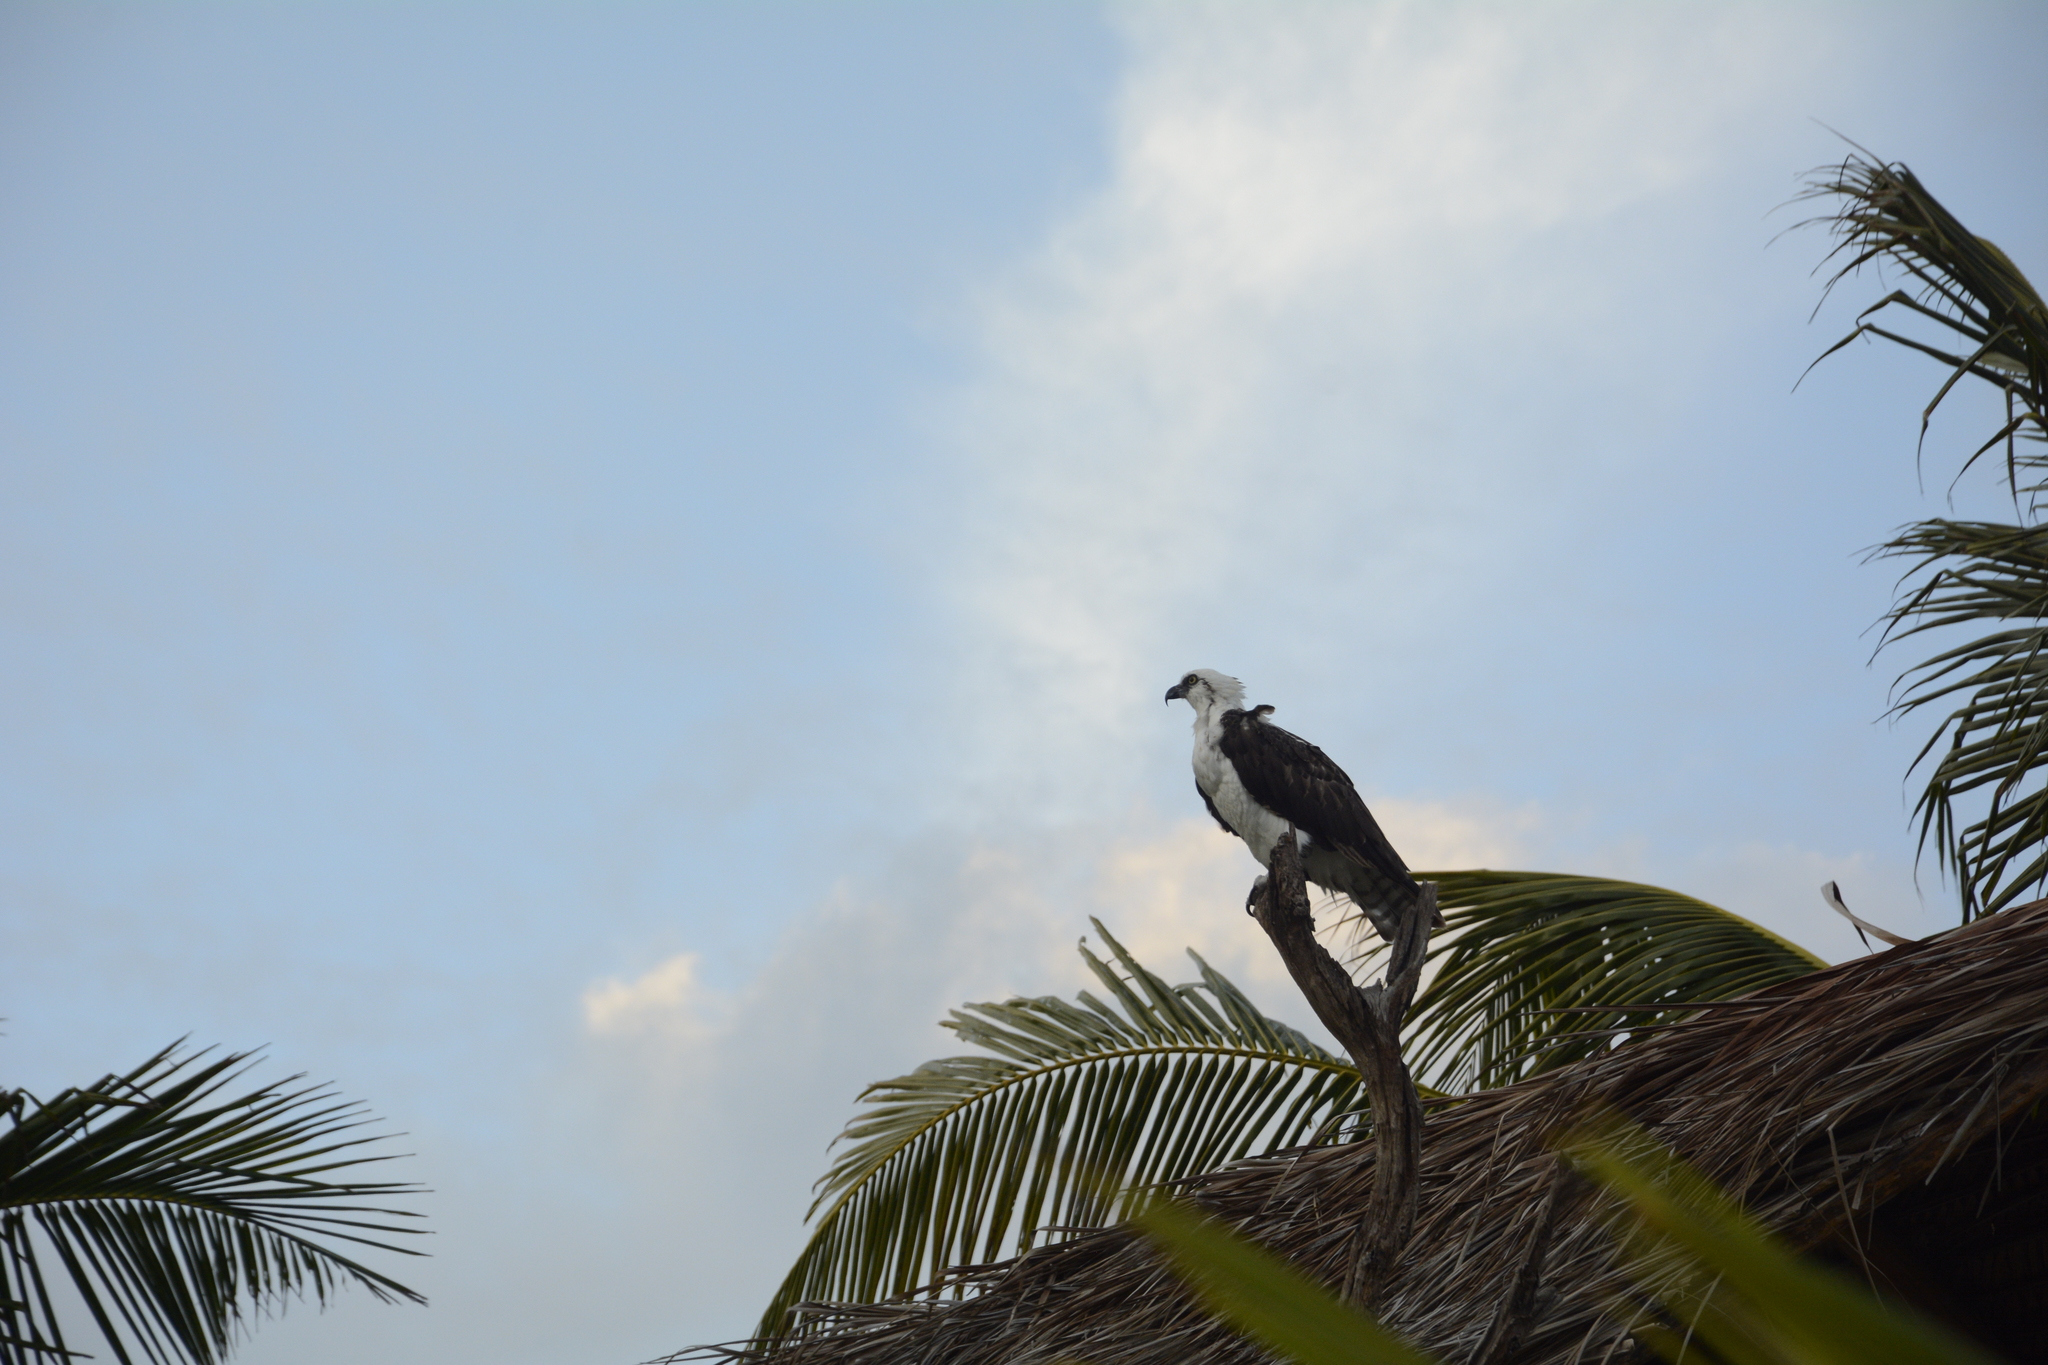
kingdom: Animalia
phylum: Chordata
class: Aves
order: Accipitriformes
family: Pandionidae
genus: Pandion
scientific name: Pandion haliaetus
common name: Osprey
